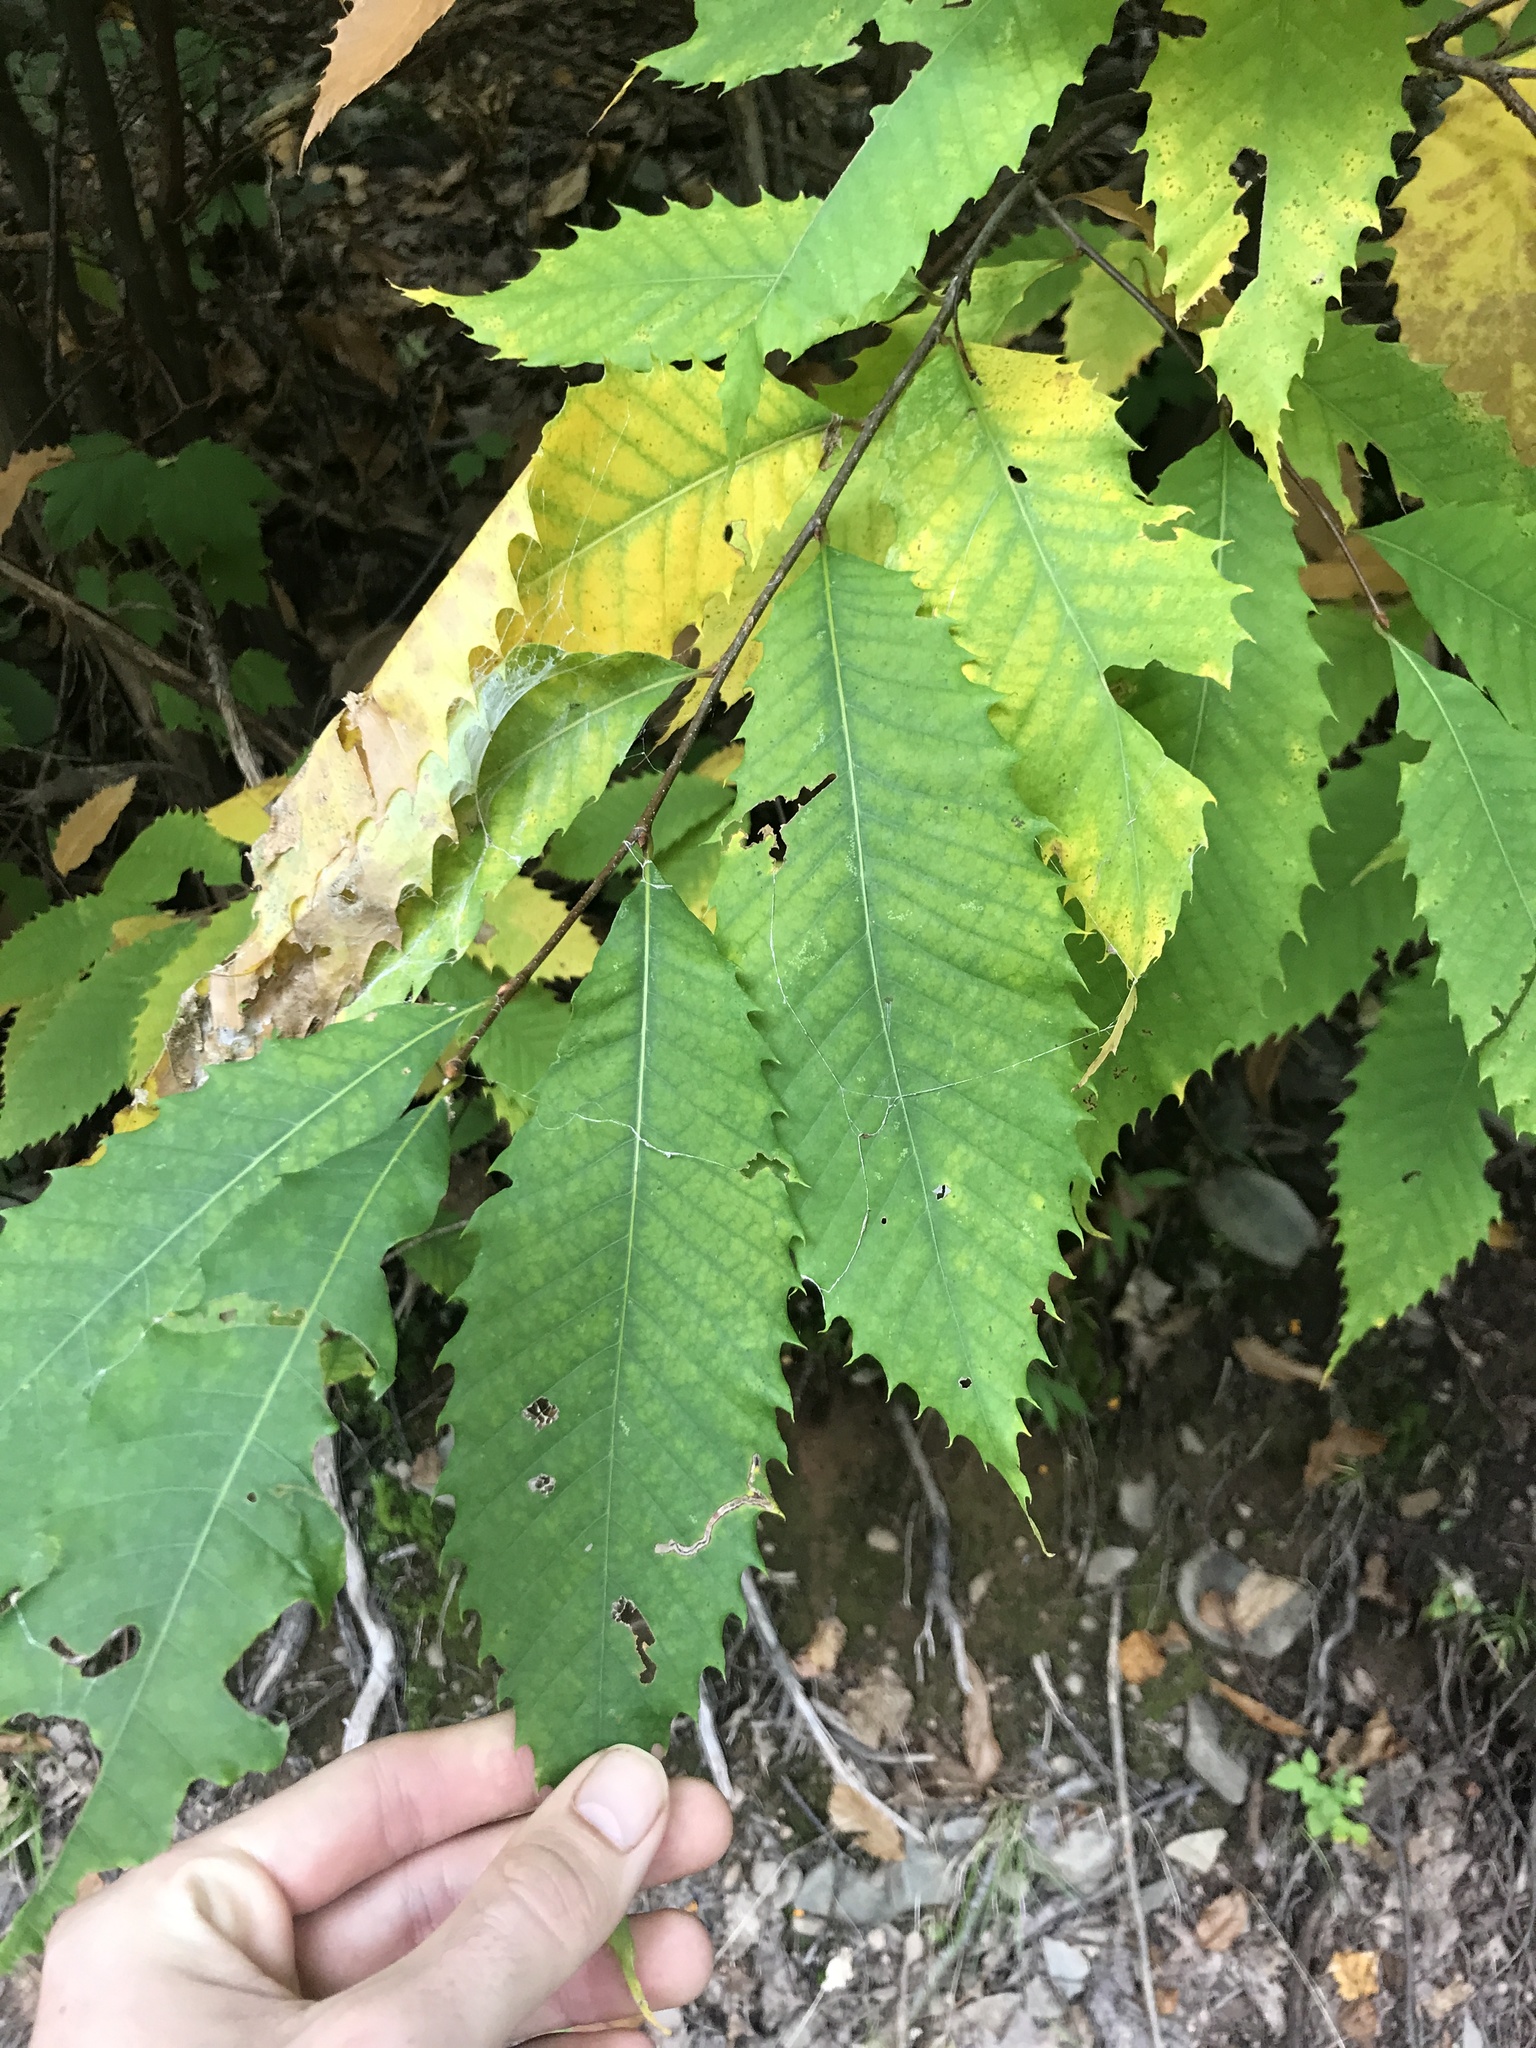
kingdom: Plantae
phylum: Tracheophyta
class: Magnoliopsida
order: Fagales
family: Fagaceae
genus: Castanea
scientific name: Castanea dentata
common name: American chestnut
